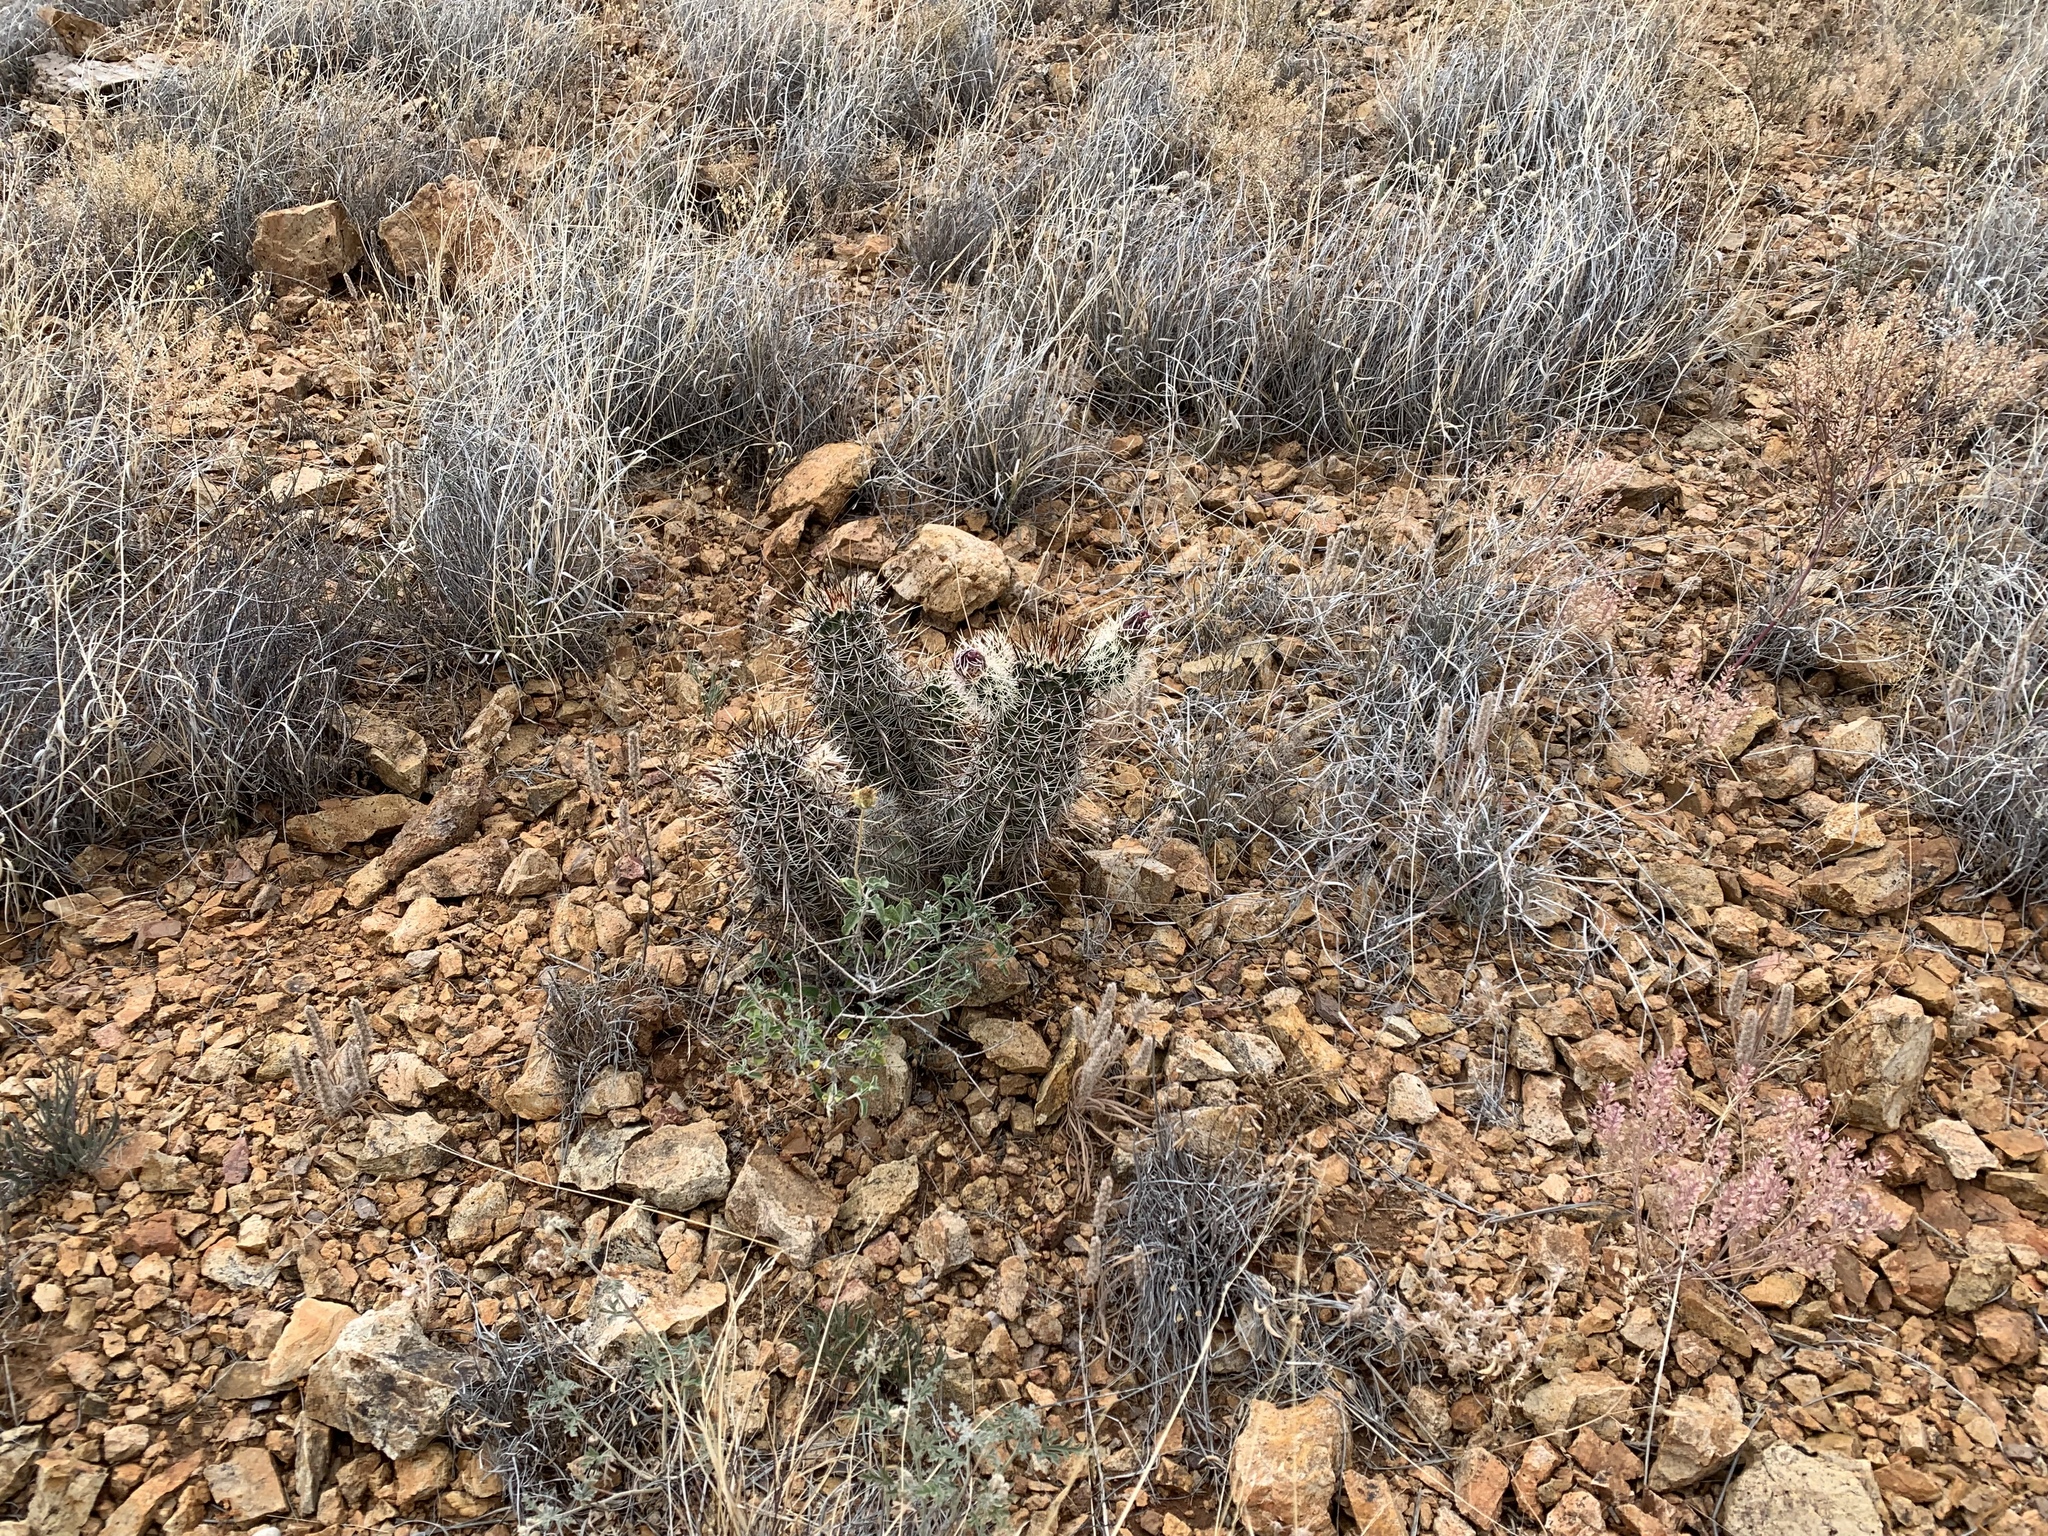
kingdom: Plantae
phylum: Tracheophyta
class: Magnoliopsida
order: Caryophyllales
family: Cactaceae
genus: Echinocereus
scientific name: Echinocereus fendleri
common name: Fendler's hedgehog cactus
